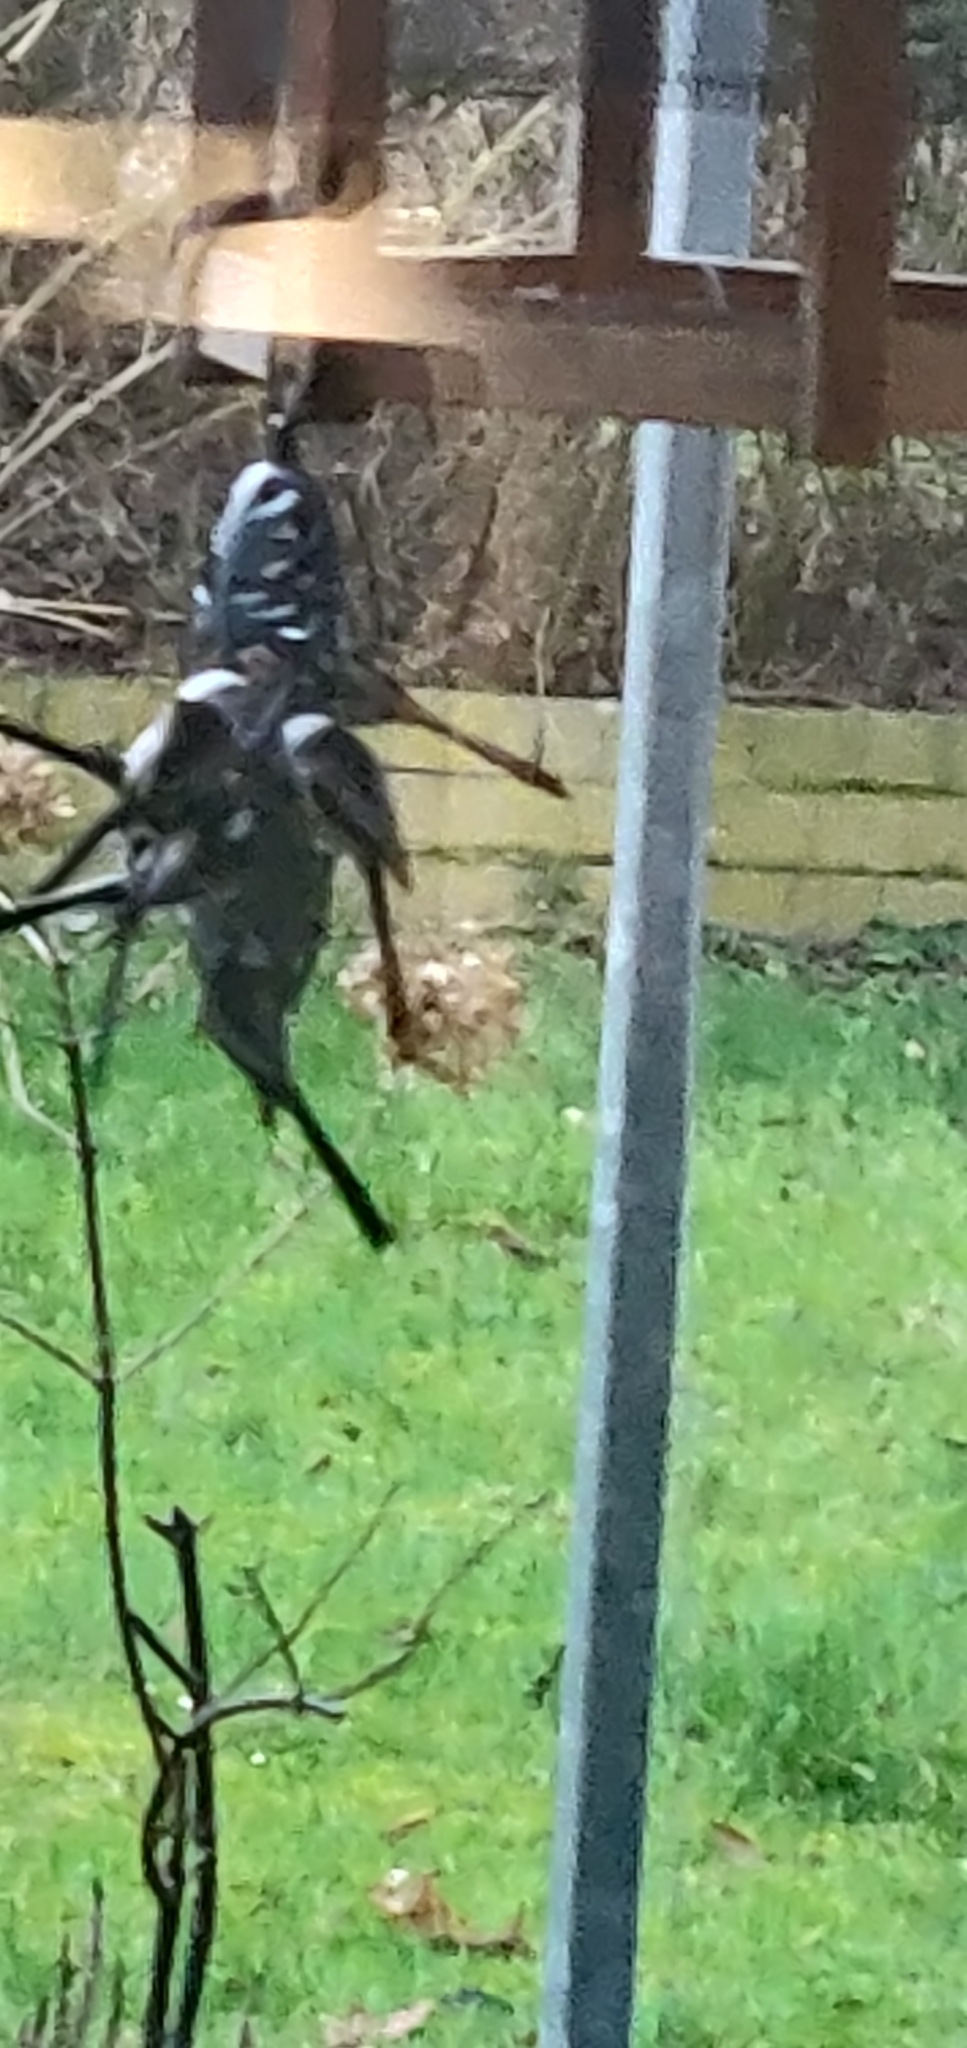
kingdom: Animalia
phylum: Chordata
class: Aves
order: Passeriformes
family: Aegithalidae
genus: Aegithalos
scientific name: Aegithalos caudatus
